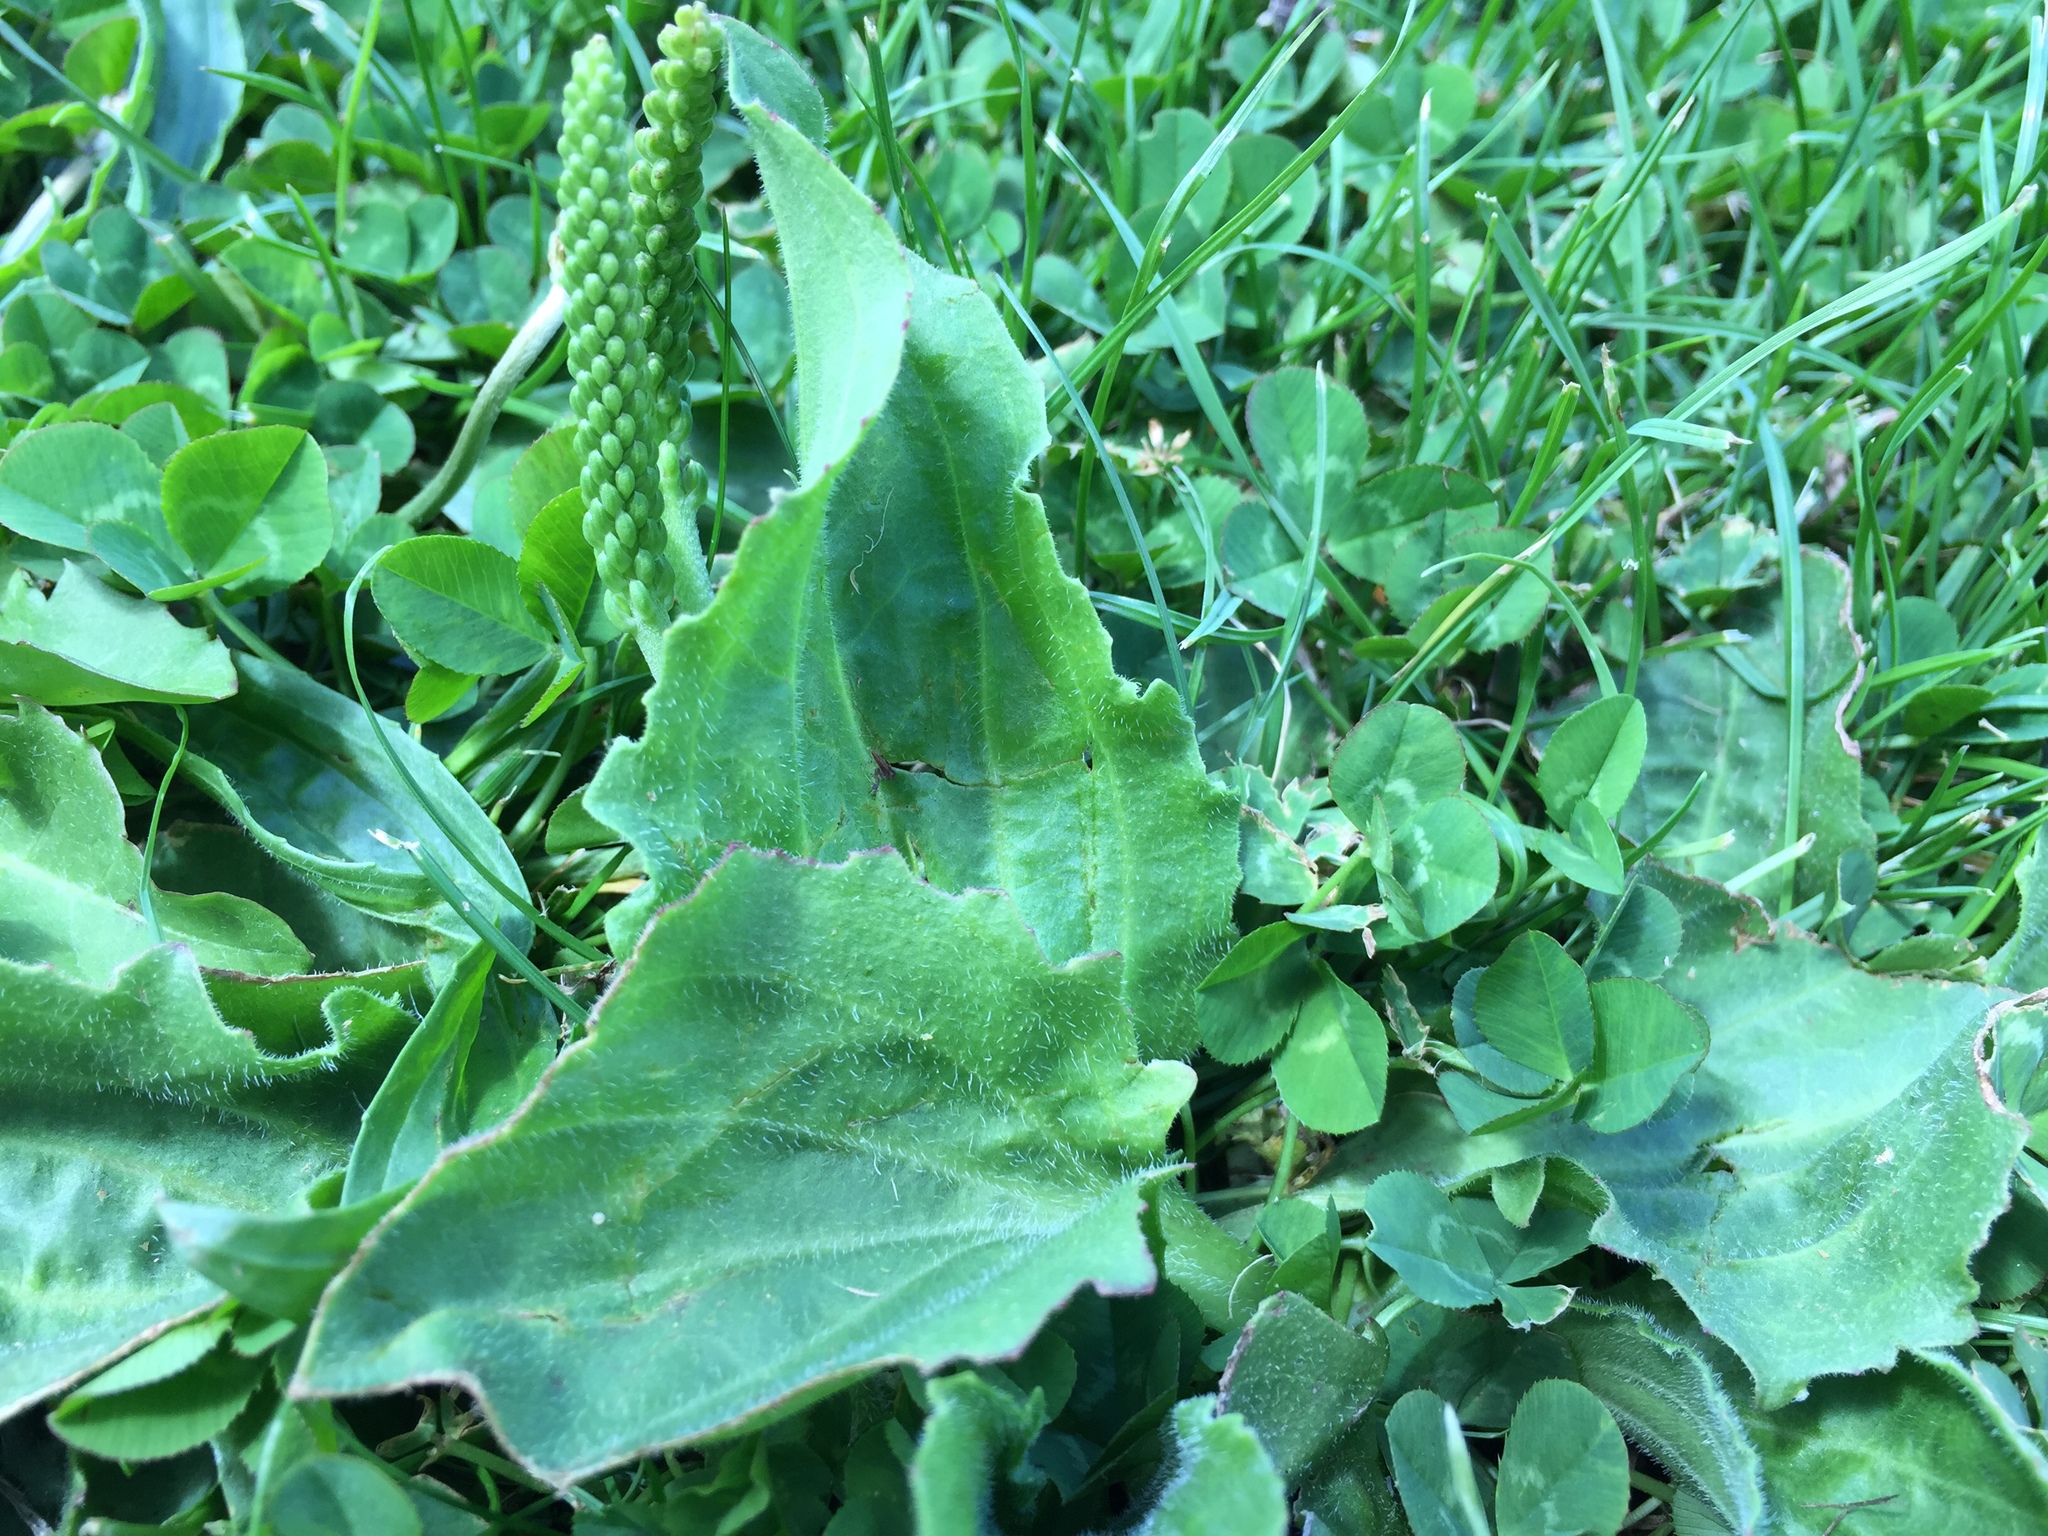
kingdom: Plantae
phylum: Tracheophyta
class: Magnoliopsida
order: Lamiales
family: Plantaginaceae
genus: Plantago
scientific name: Plantago major
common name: Common plantain
